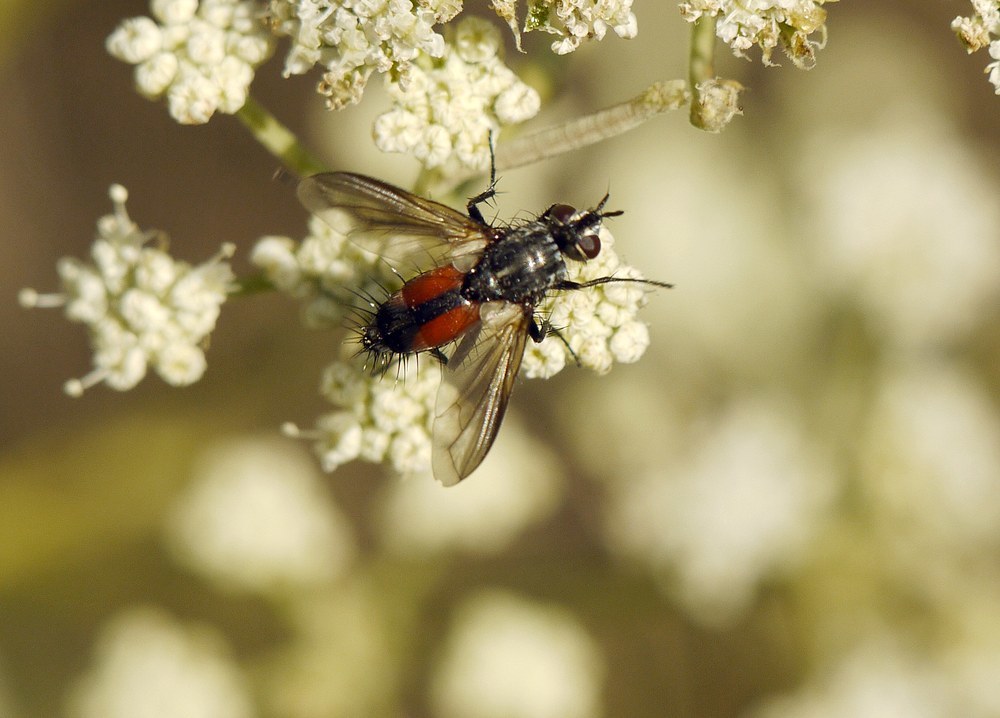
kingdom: Animalia
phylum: Arthropoda
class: Insecta
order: Diptera
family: Tachinidae
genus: Eriothrix
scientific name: Eriothrix rufomaculatus
